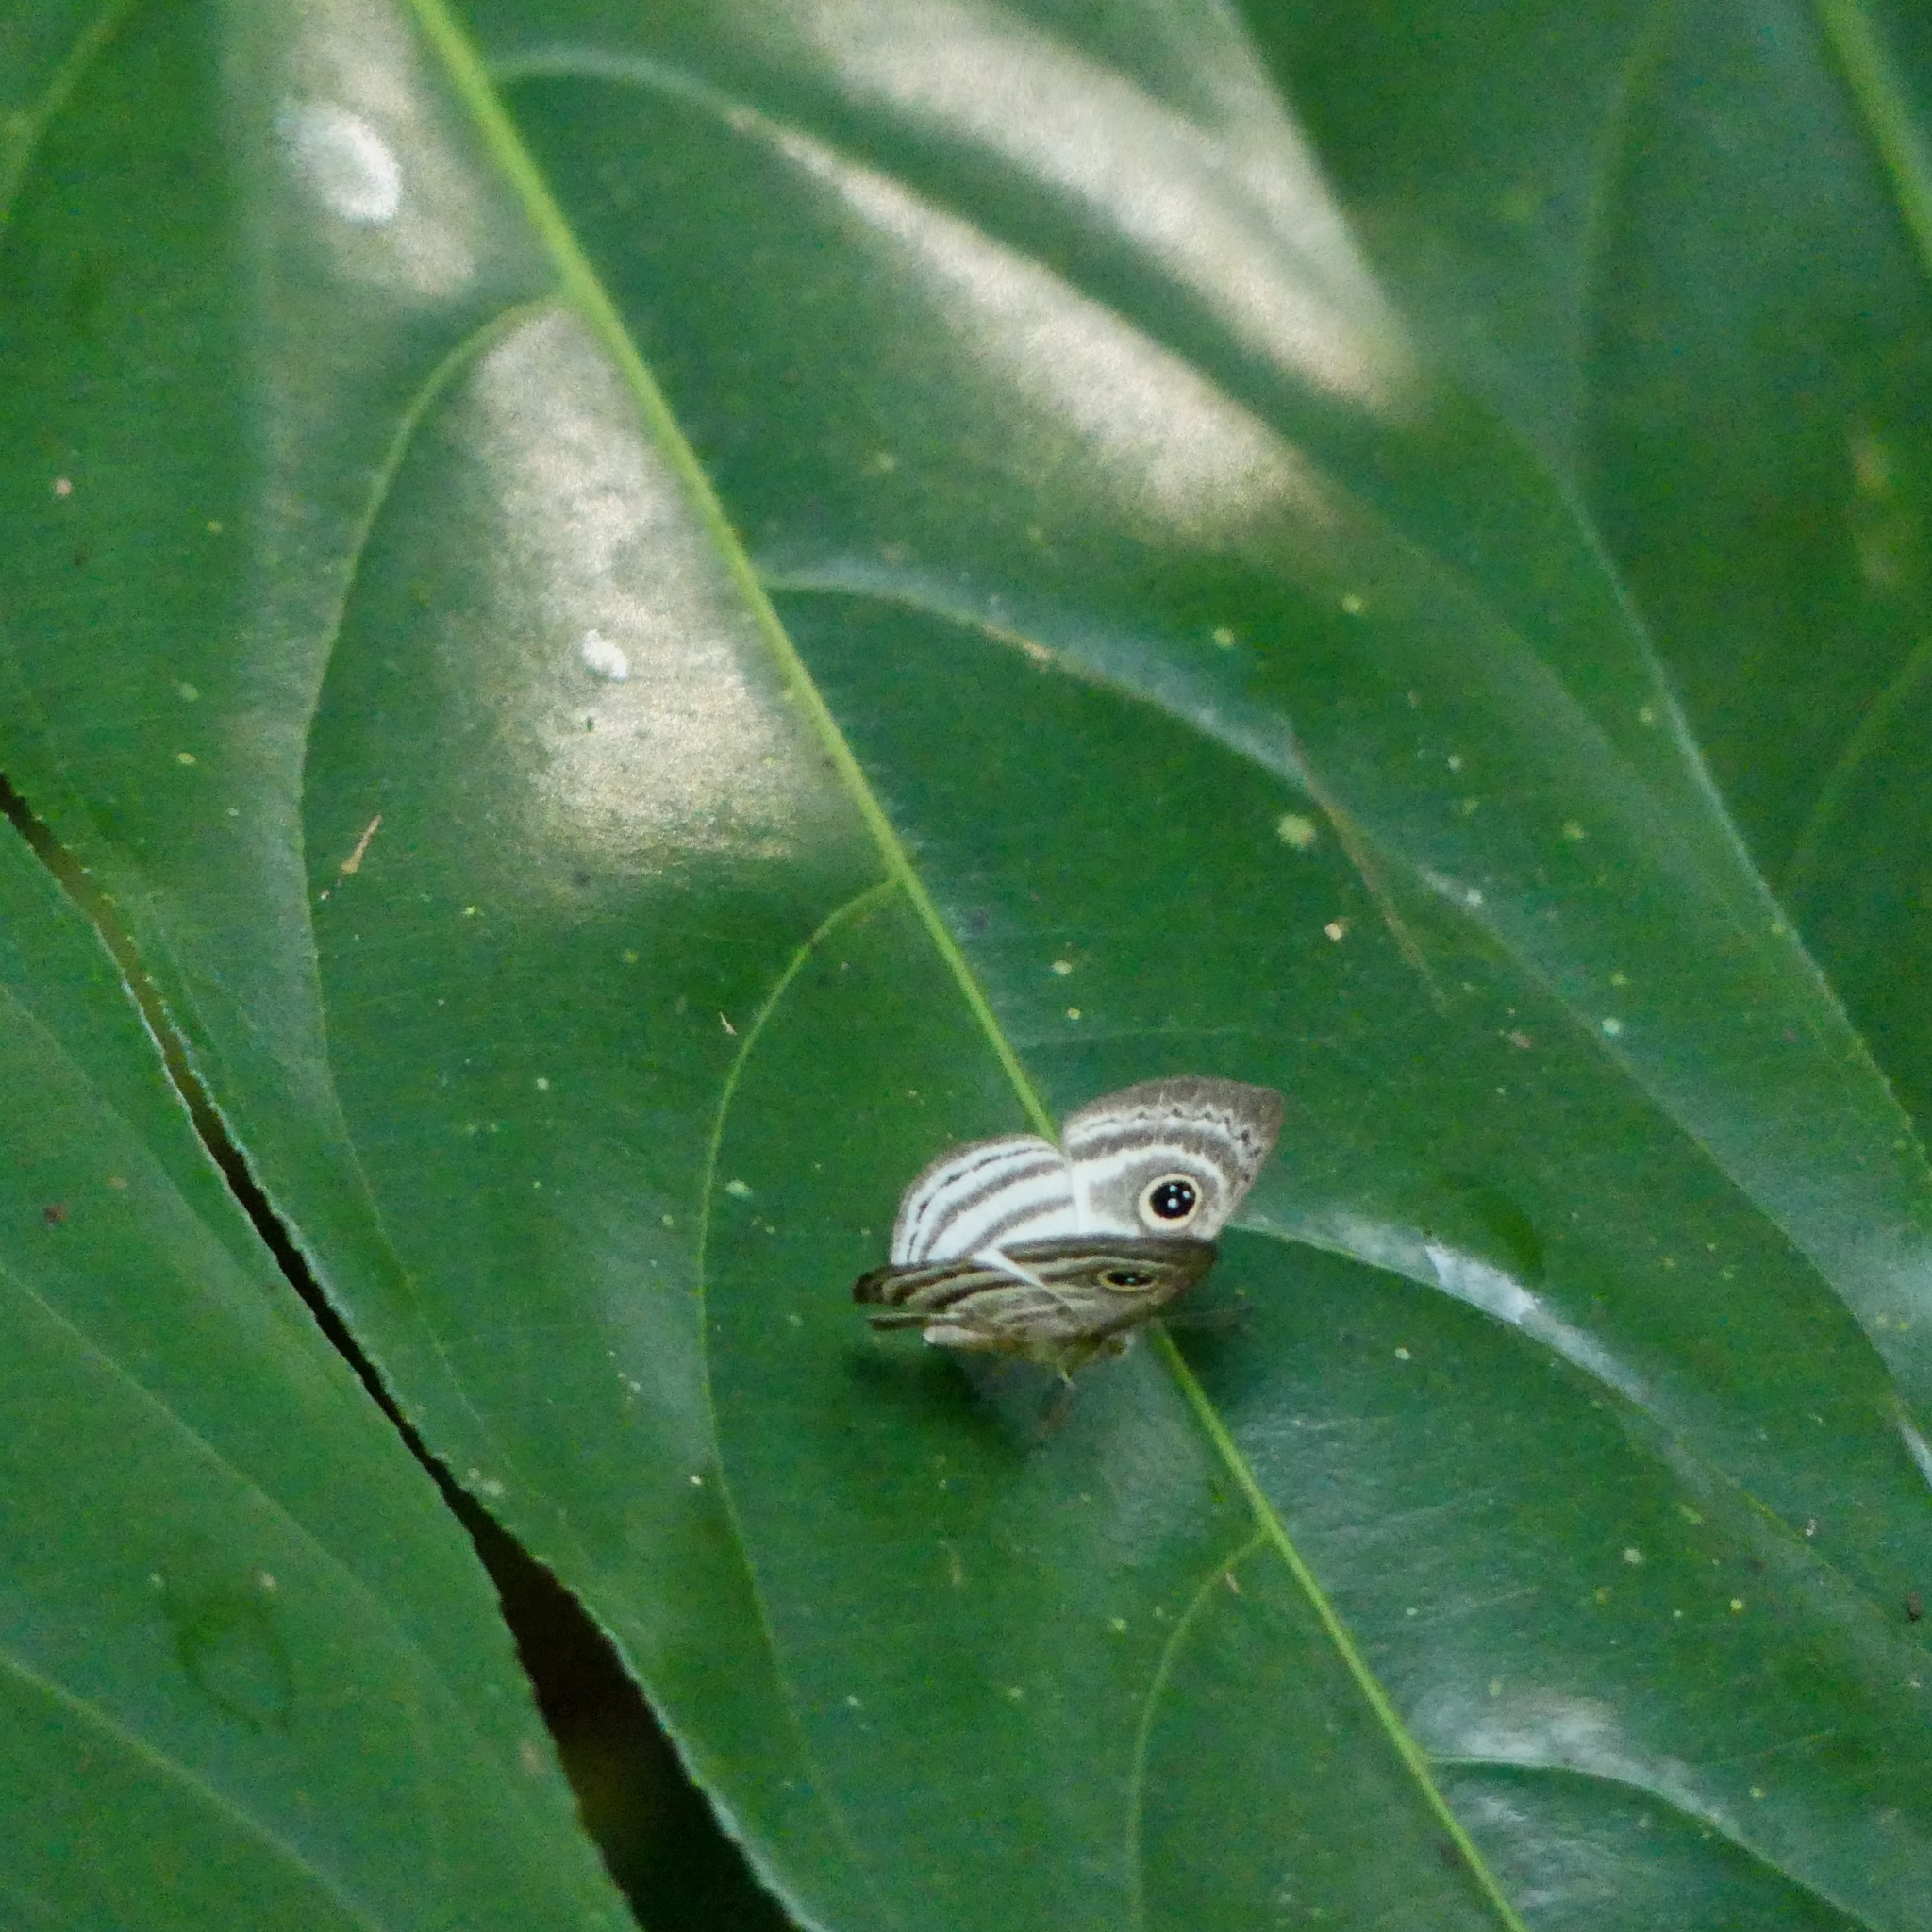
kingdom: Animalia
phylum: Arthropoda
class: Insecta
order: Lepidoptera
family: Riodinidae
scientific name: Riodinidae
